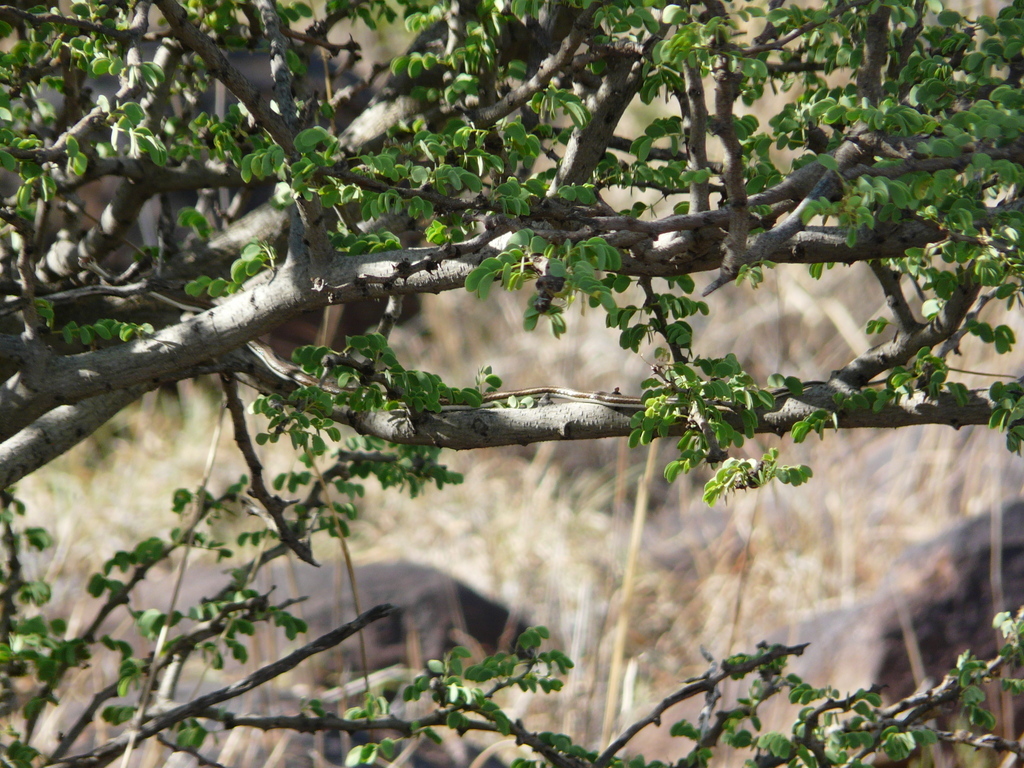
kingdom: Animalia
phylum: Chordata
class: Squamata
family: Psammophiidae
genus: Psammophis
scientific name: Psammophis leightoni
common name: Cape sand snake
